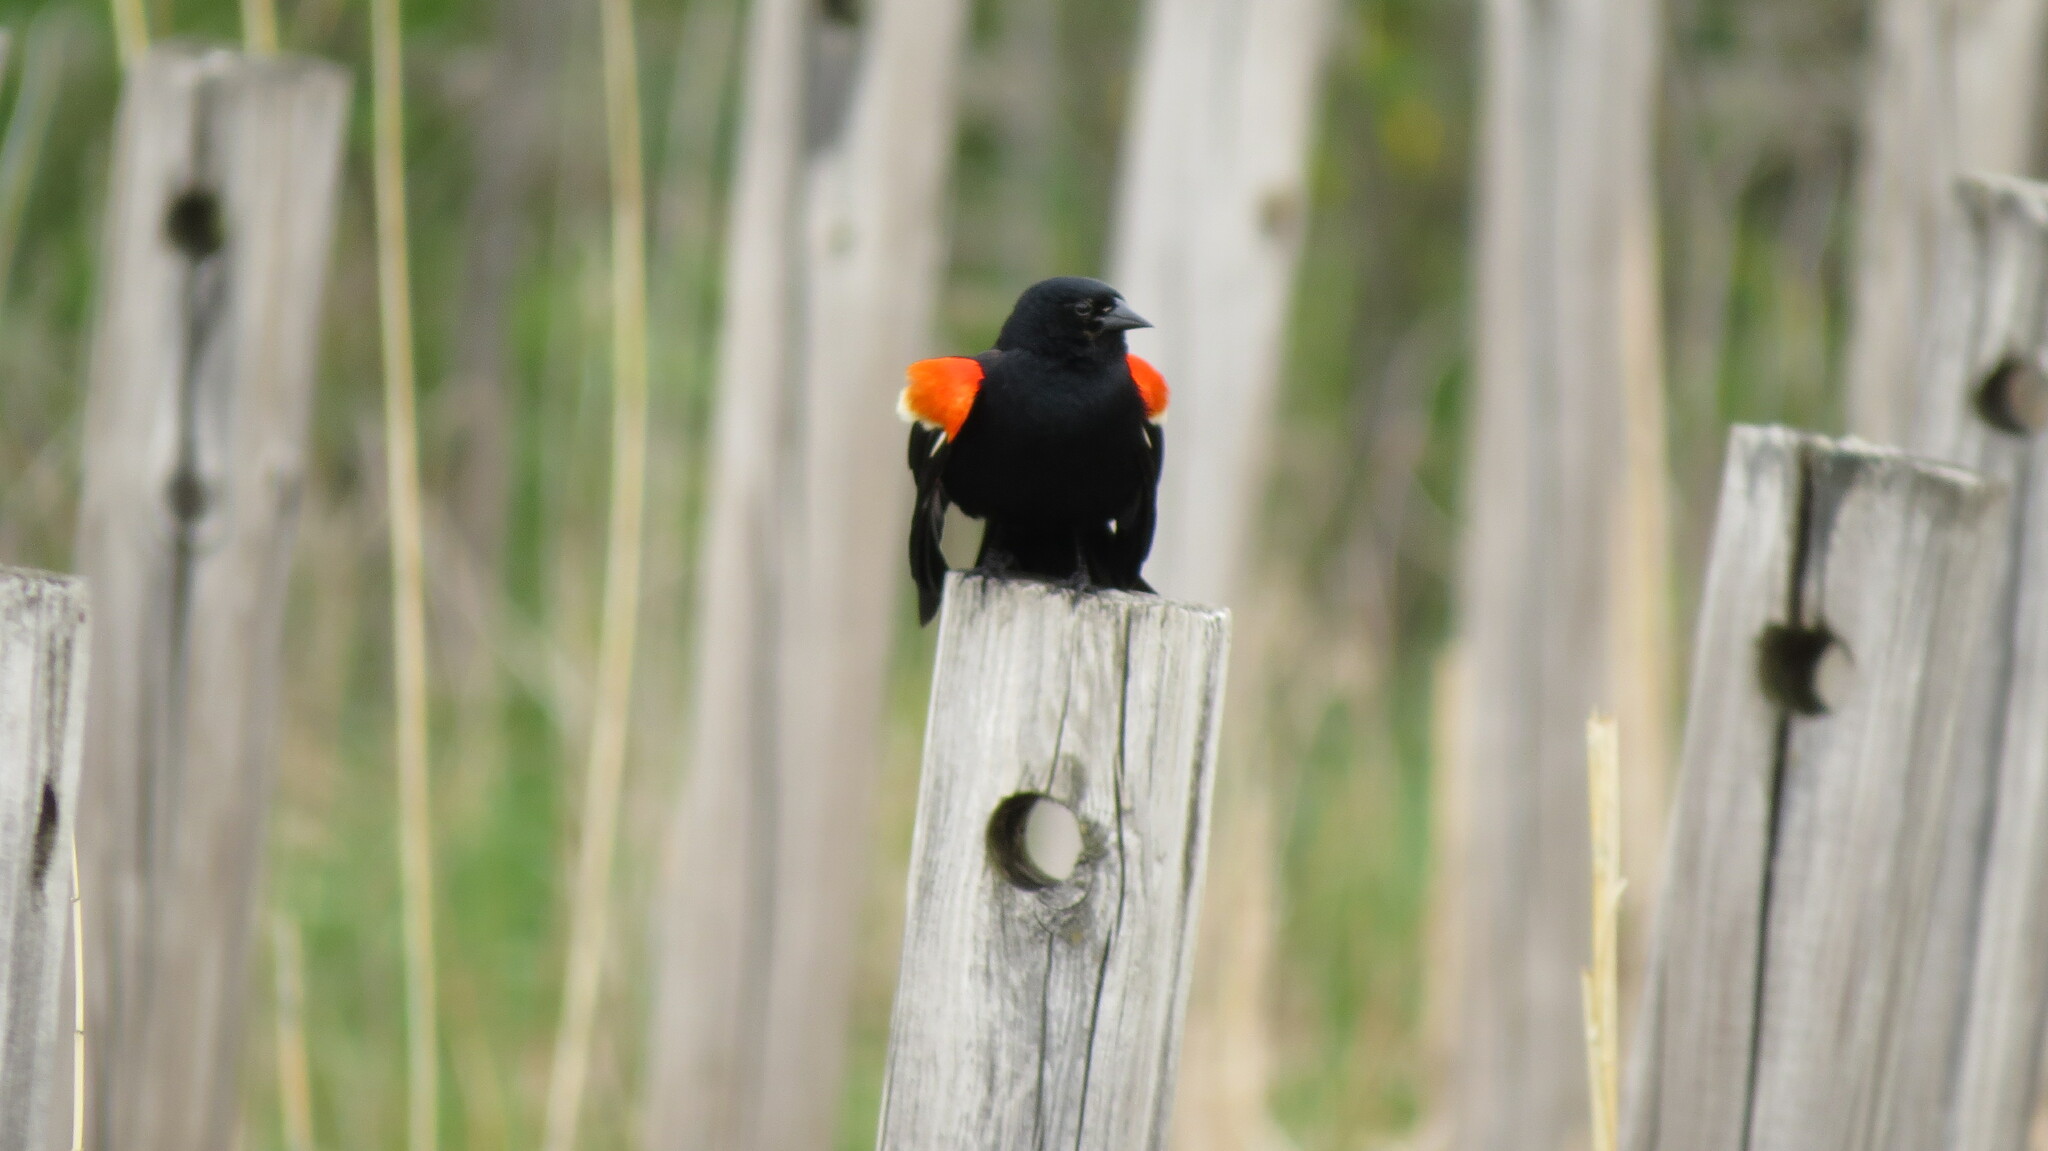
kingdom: Animalia
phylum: Chordata
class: Aves
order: Passeriformes
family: Icteridae
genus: Agelaius
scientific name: Agelaius phoeniceus
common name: Red-winged blackbird
